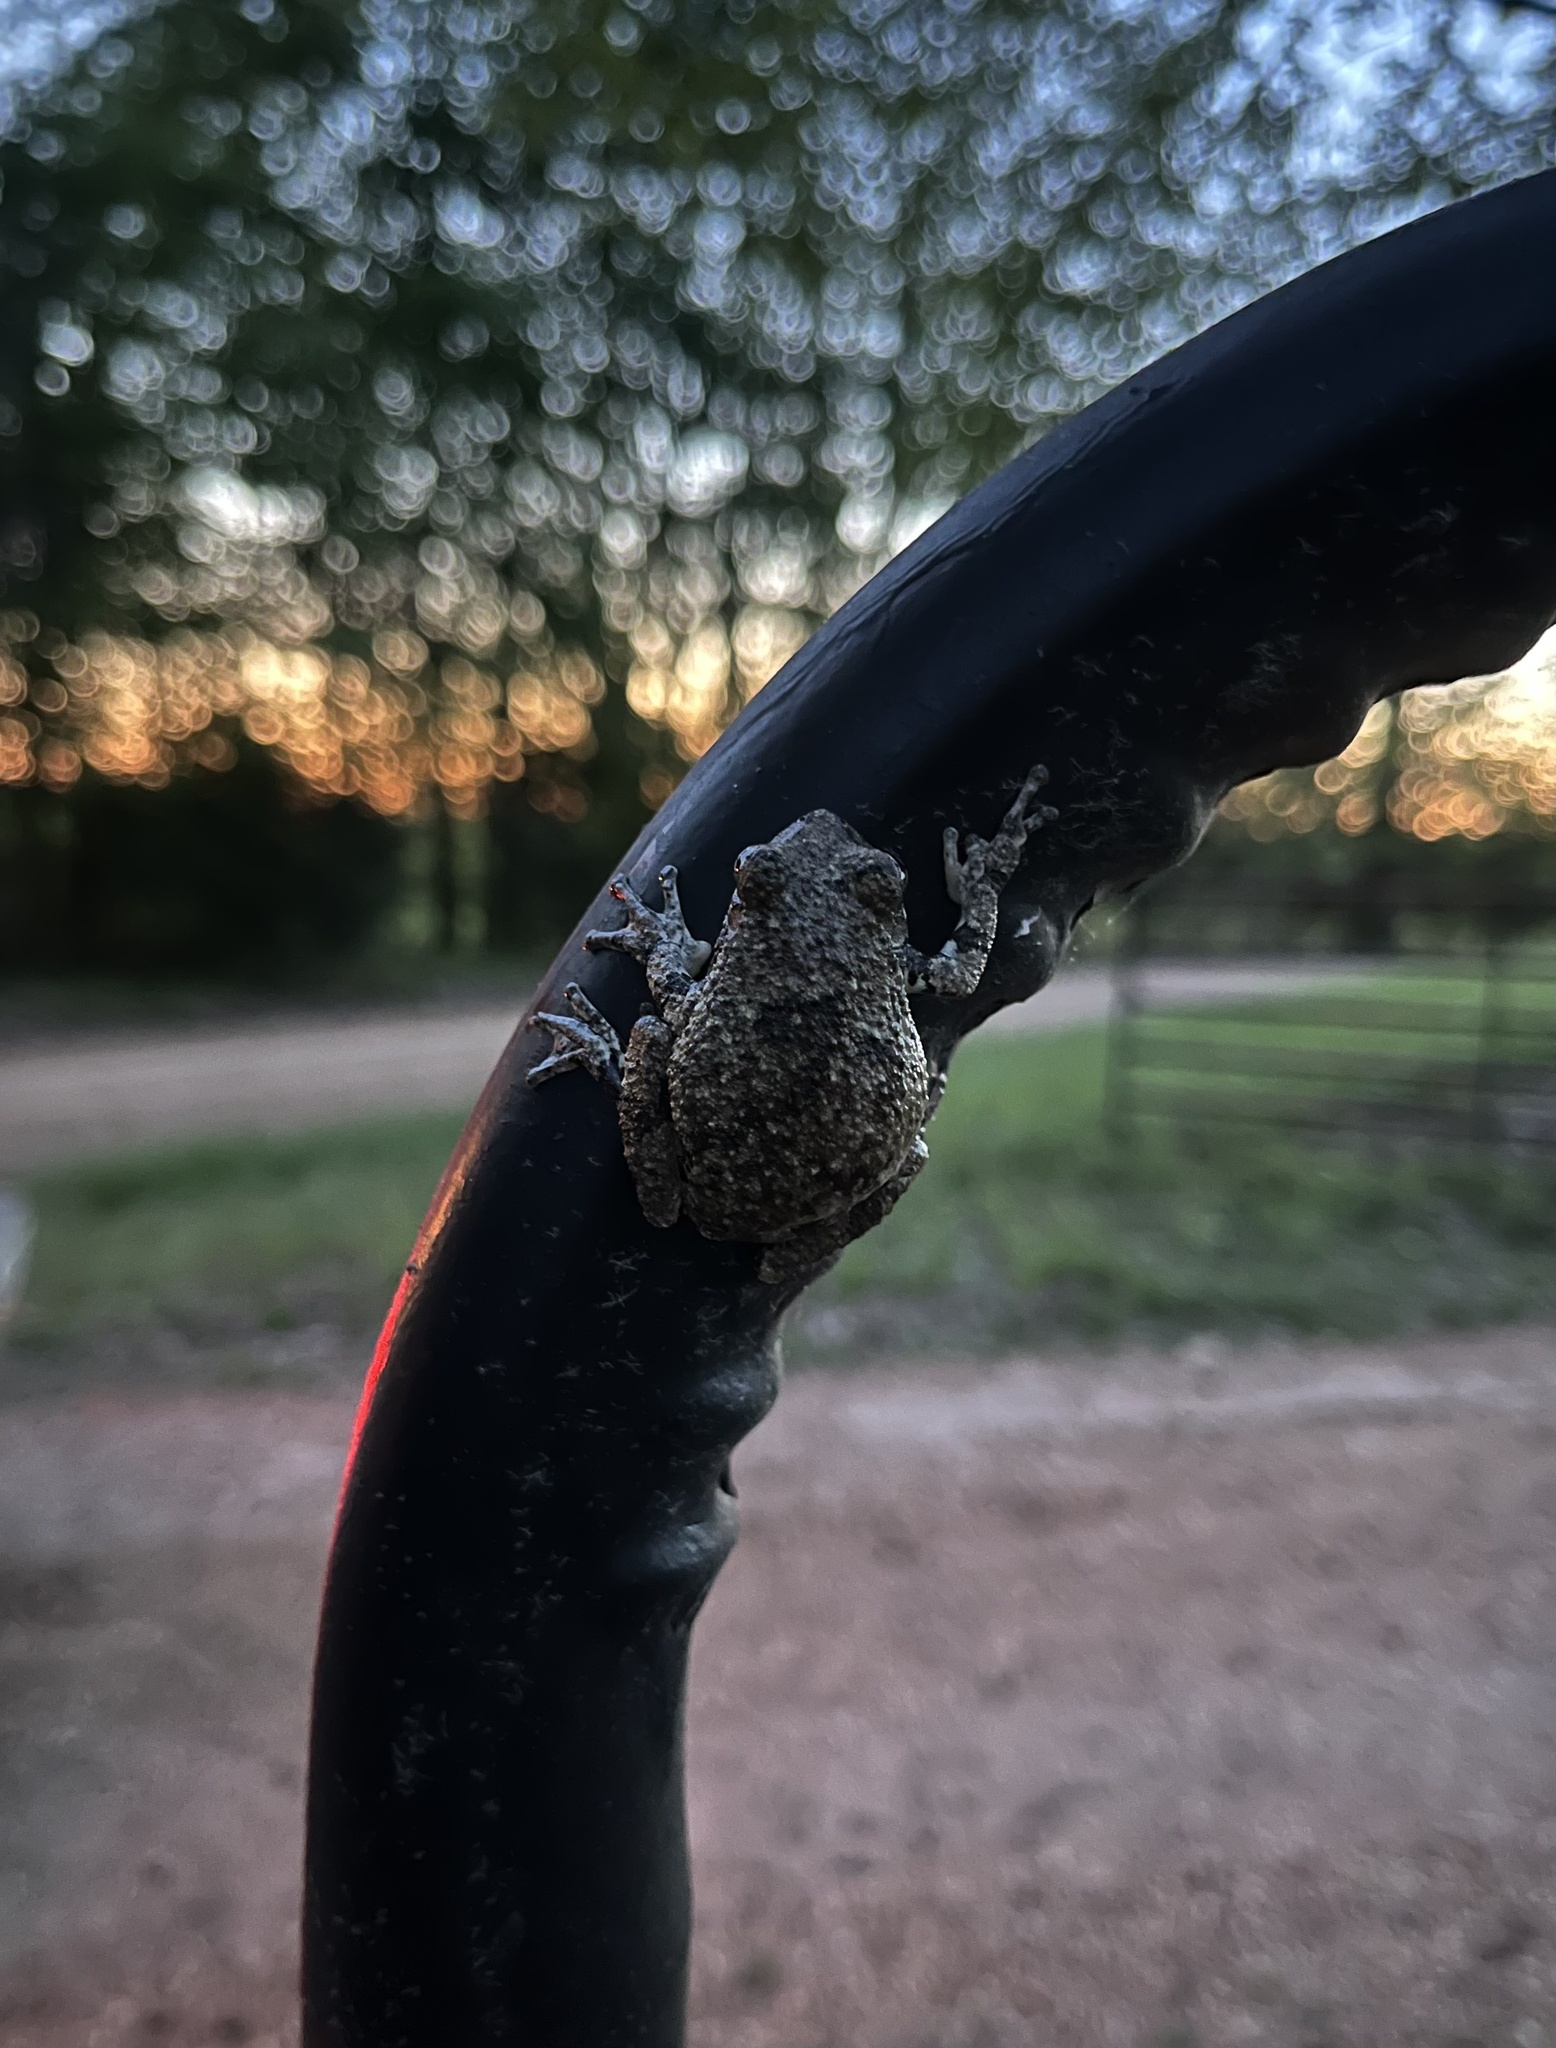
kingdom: Animalia
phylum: Chordata
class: Amphibia
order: Anura
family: Hylidae
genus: Dryophytes
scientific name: Dryophytes chrysoscelis
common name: Cope's gray treefrog
